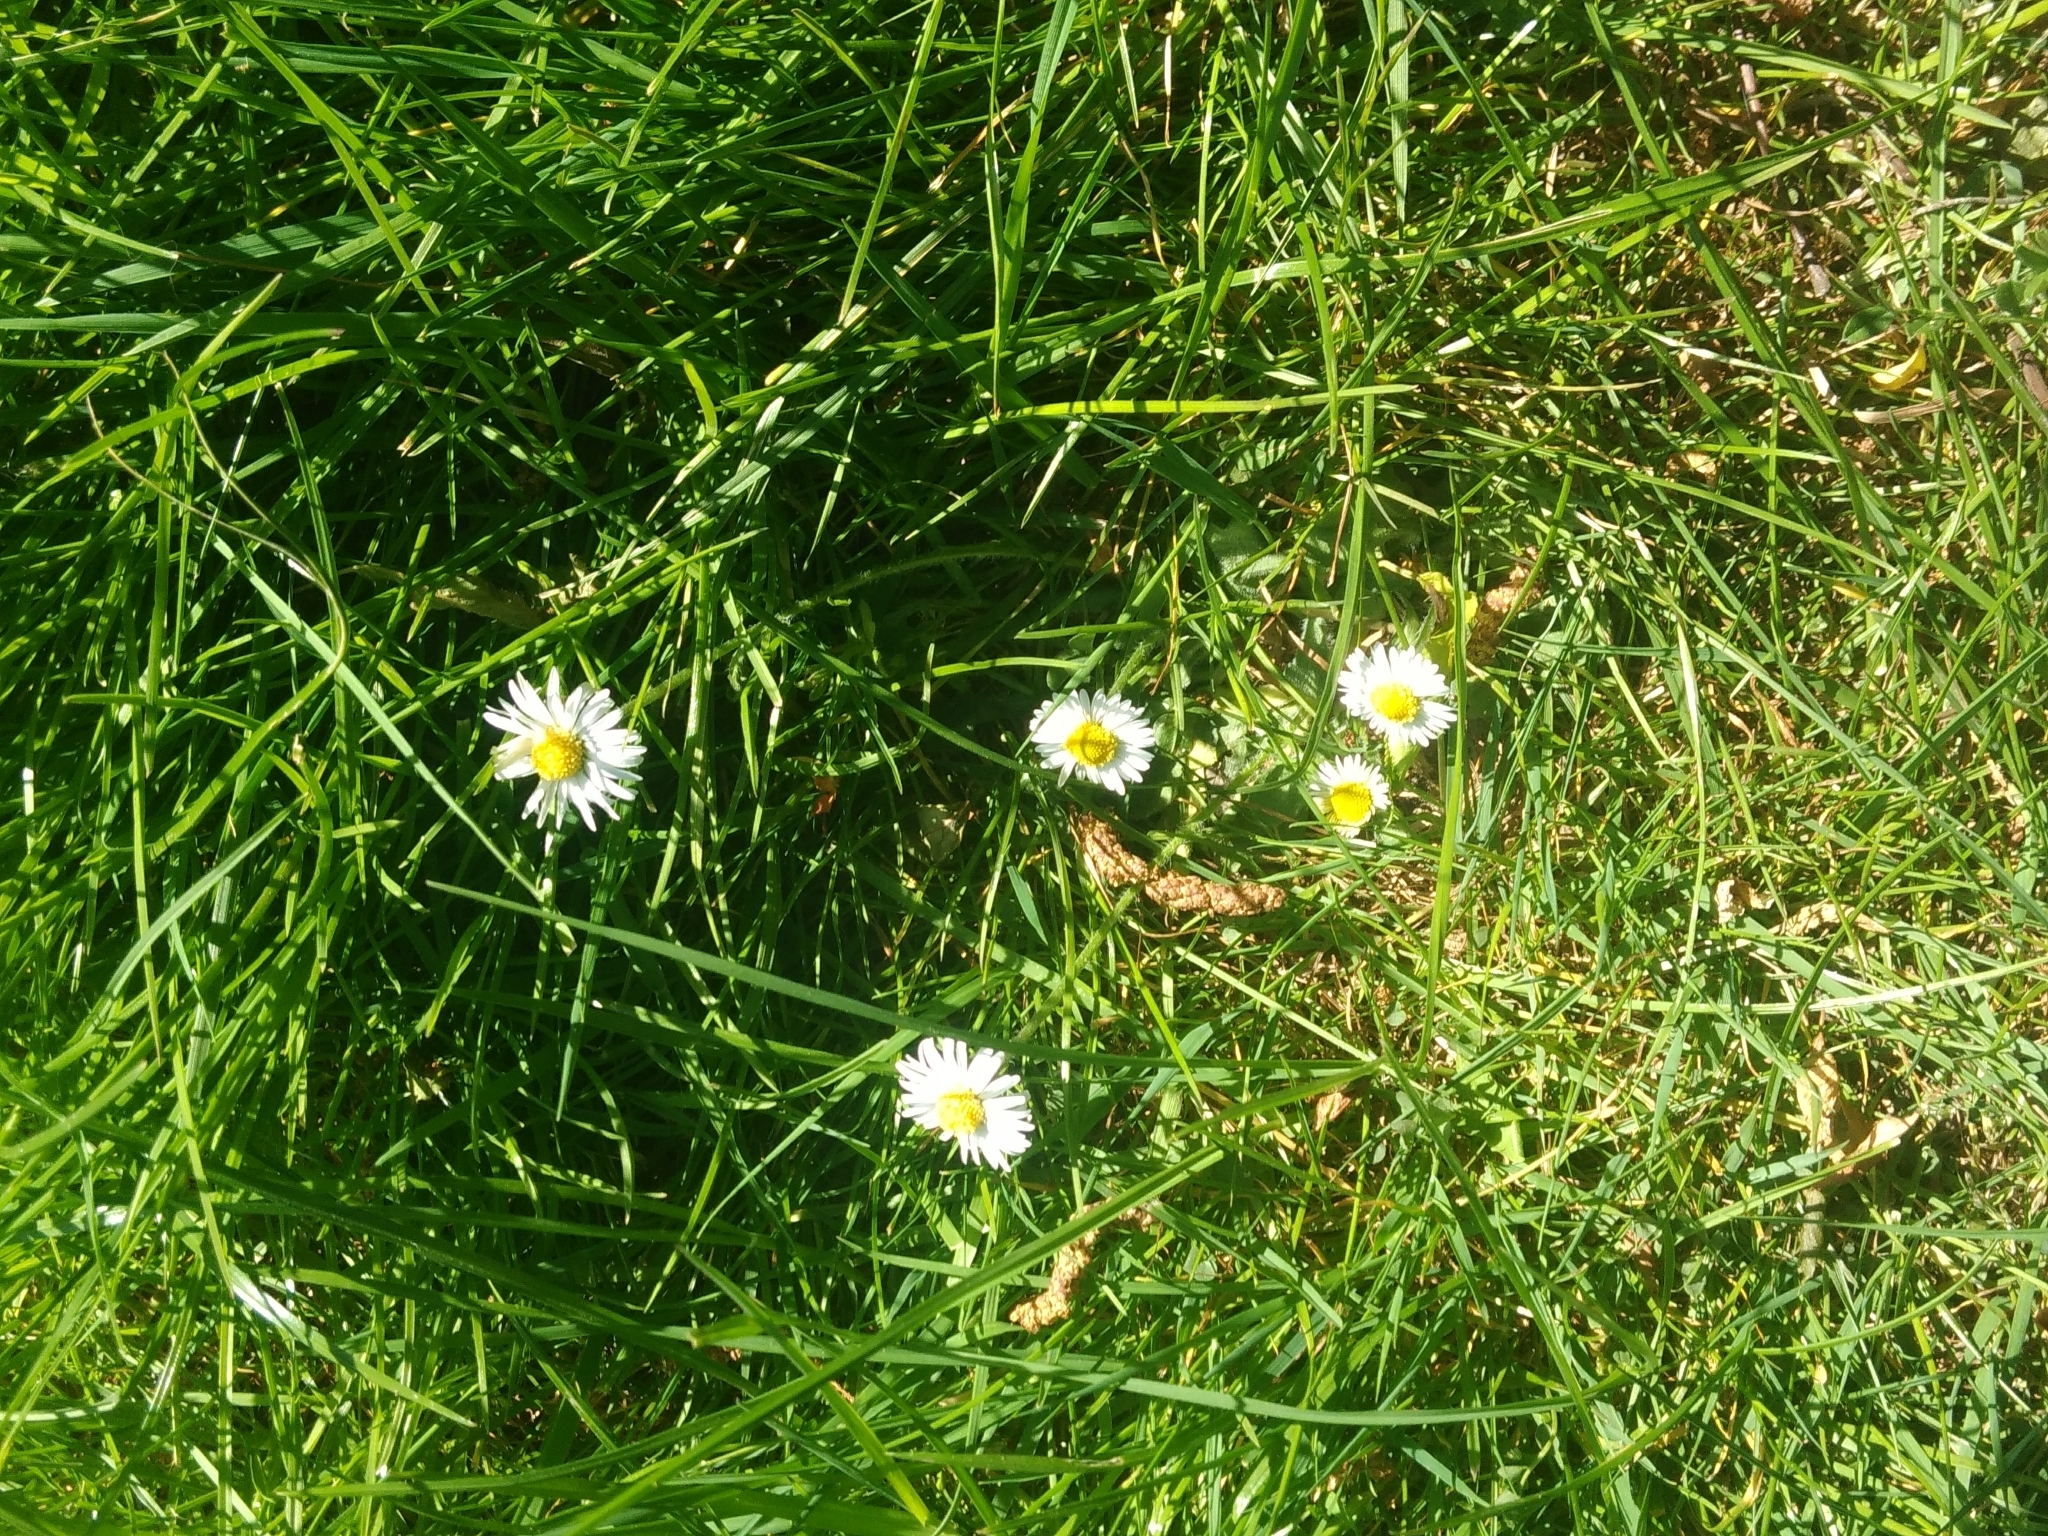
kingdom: Plantae
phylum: Tracheophyta
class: Magnoliopsida
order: Asterales
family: Asteraceae
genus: Bellis
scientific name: Bellis perennis
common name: Lawndaisy
